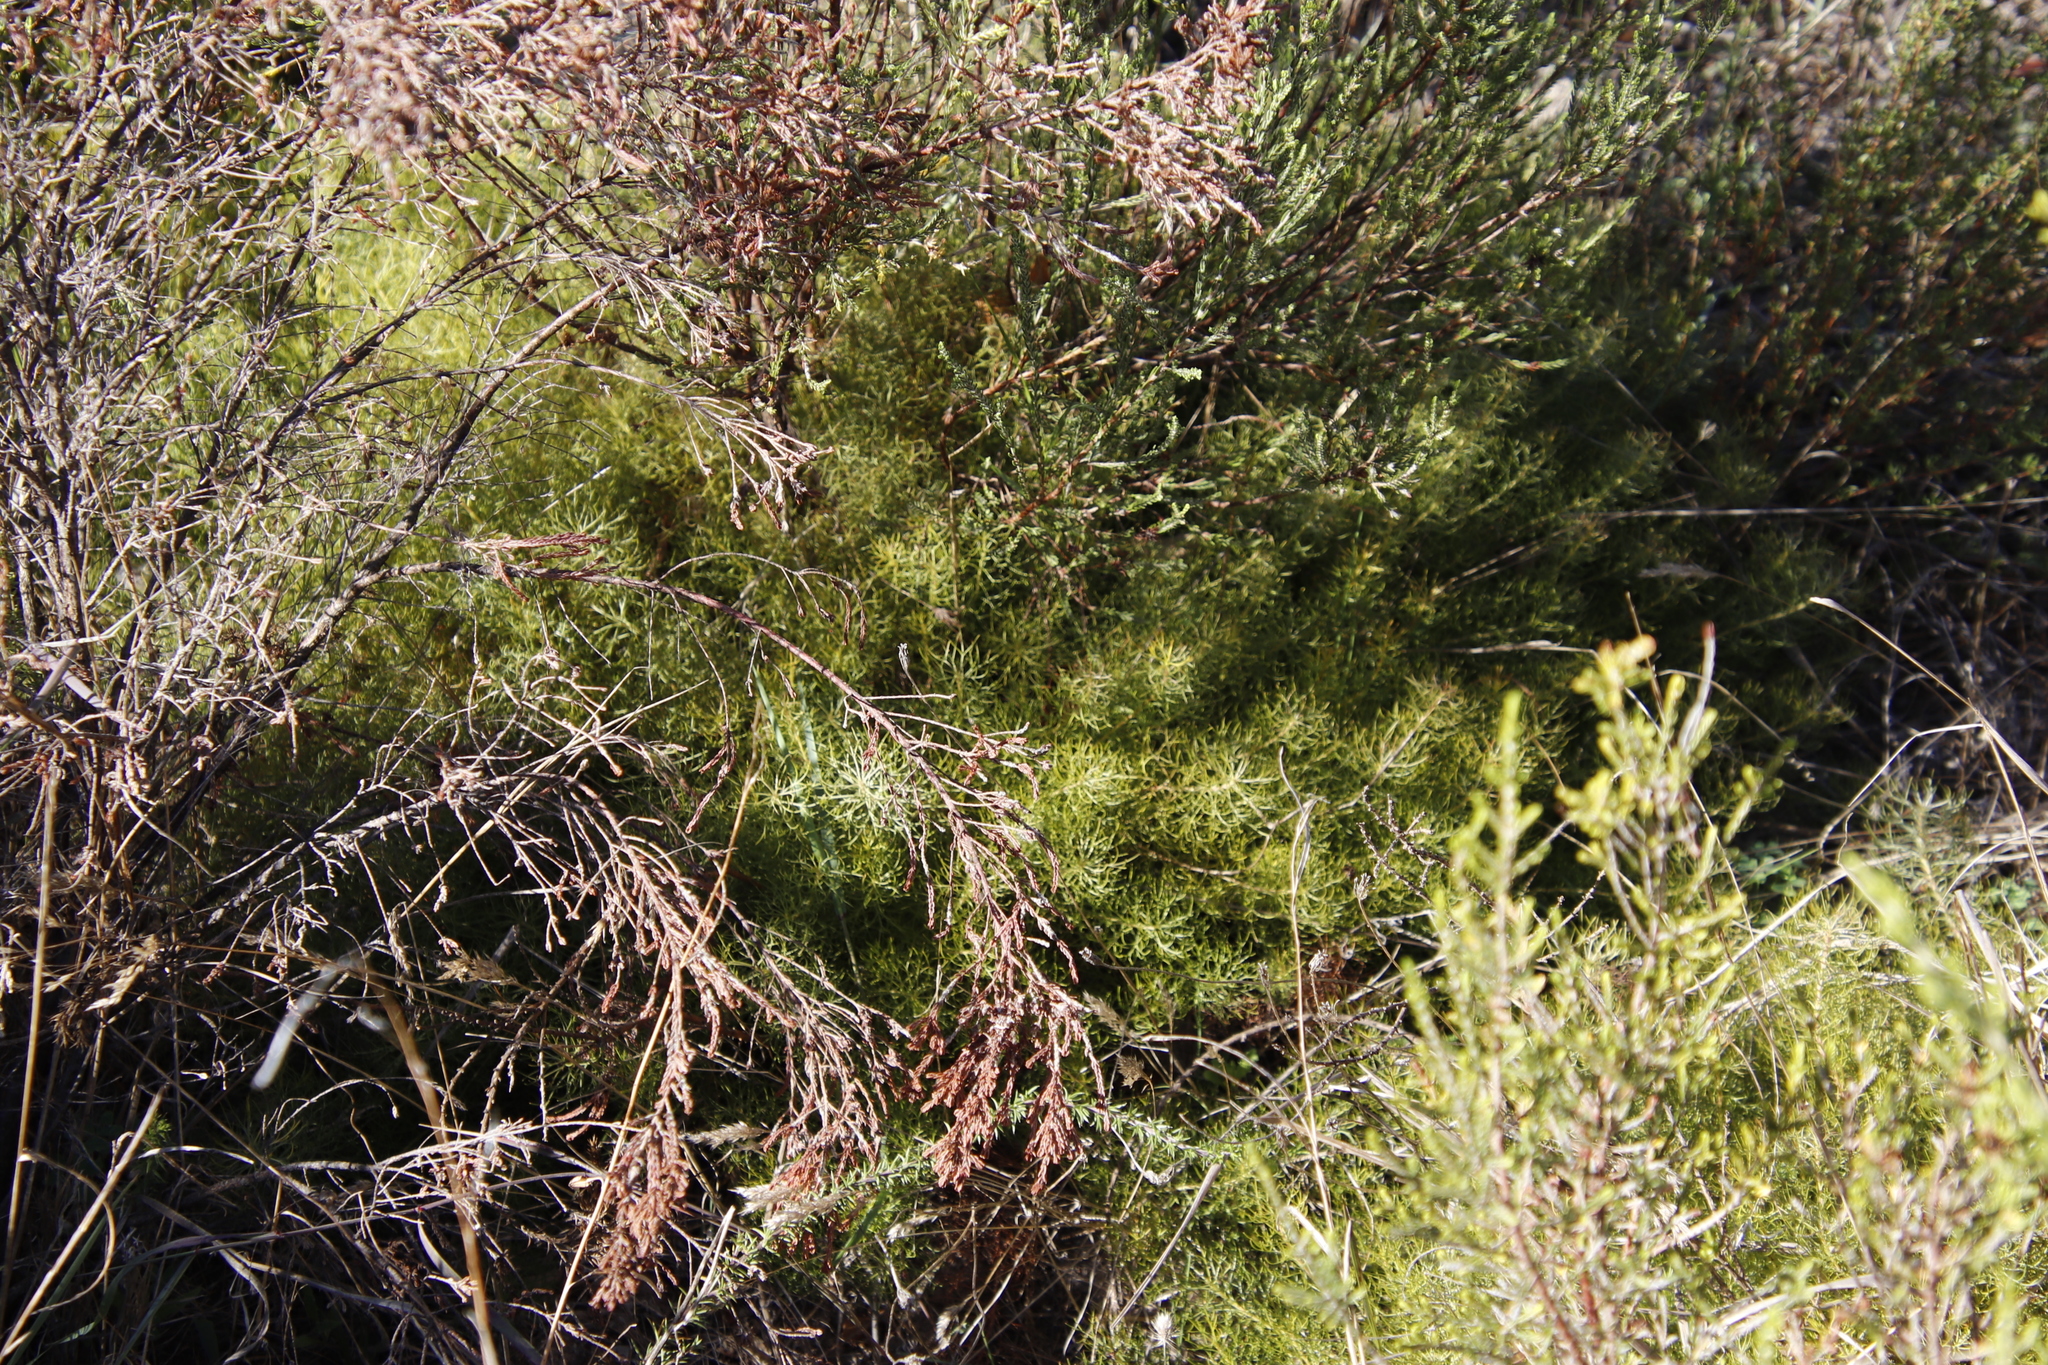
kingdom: Plantae
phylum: Tracheophyta
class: Magnoliopsida
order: Proteales
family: Proteaceae
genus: Serruria
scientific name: Serruria cyanoides
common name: Wynberg spiderhead
